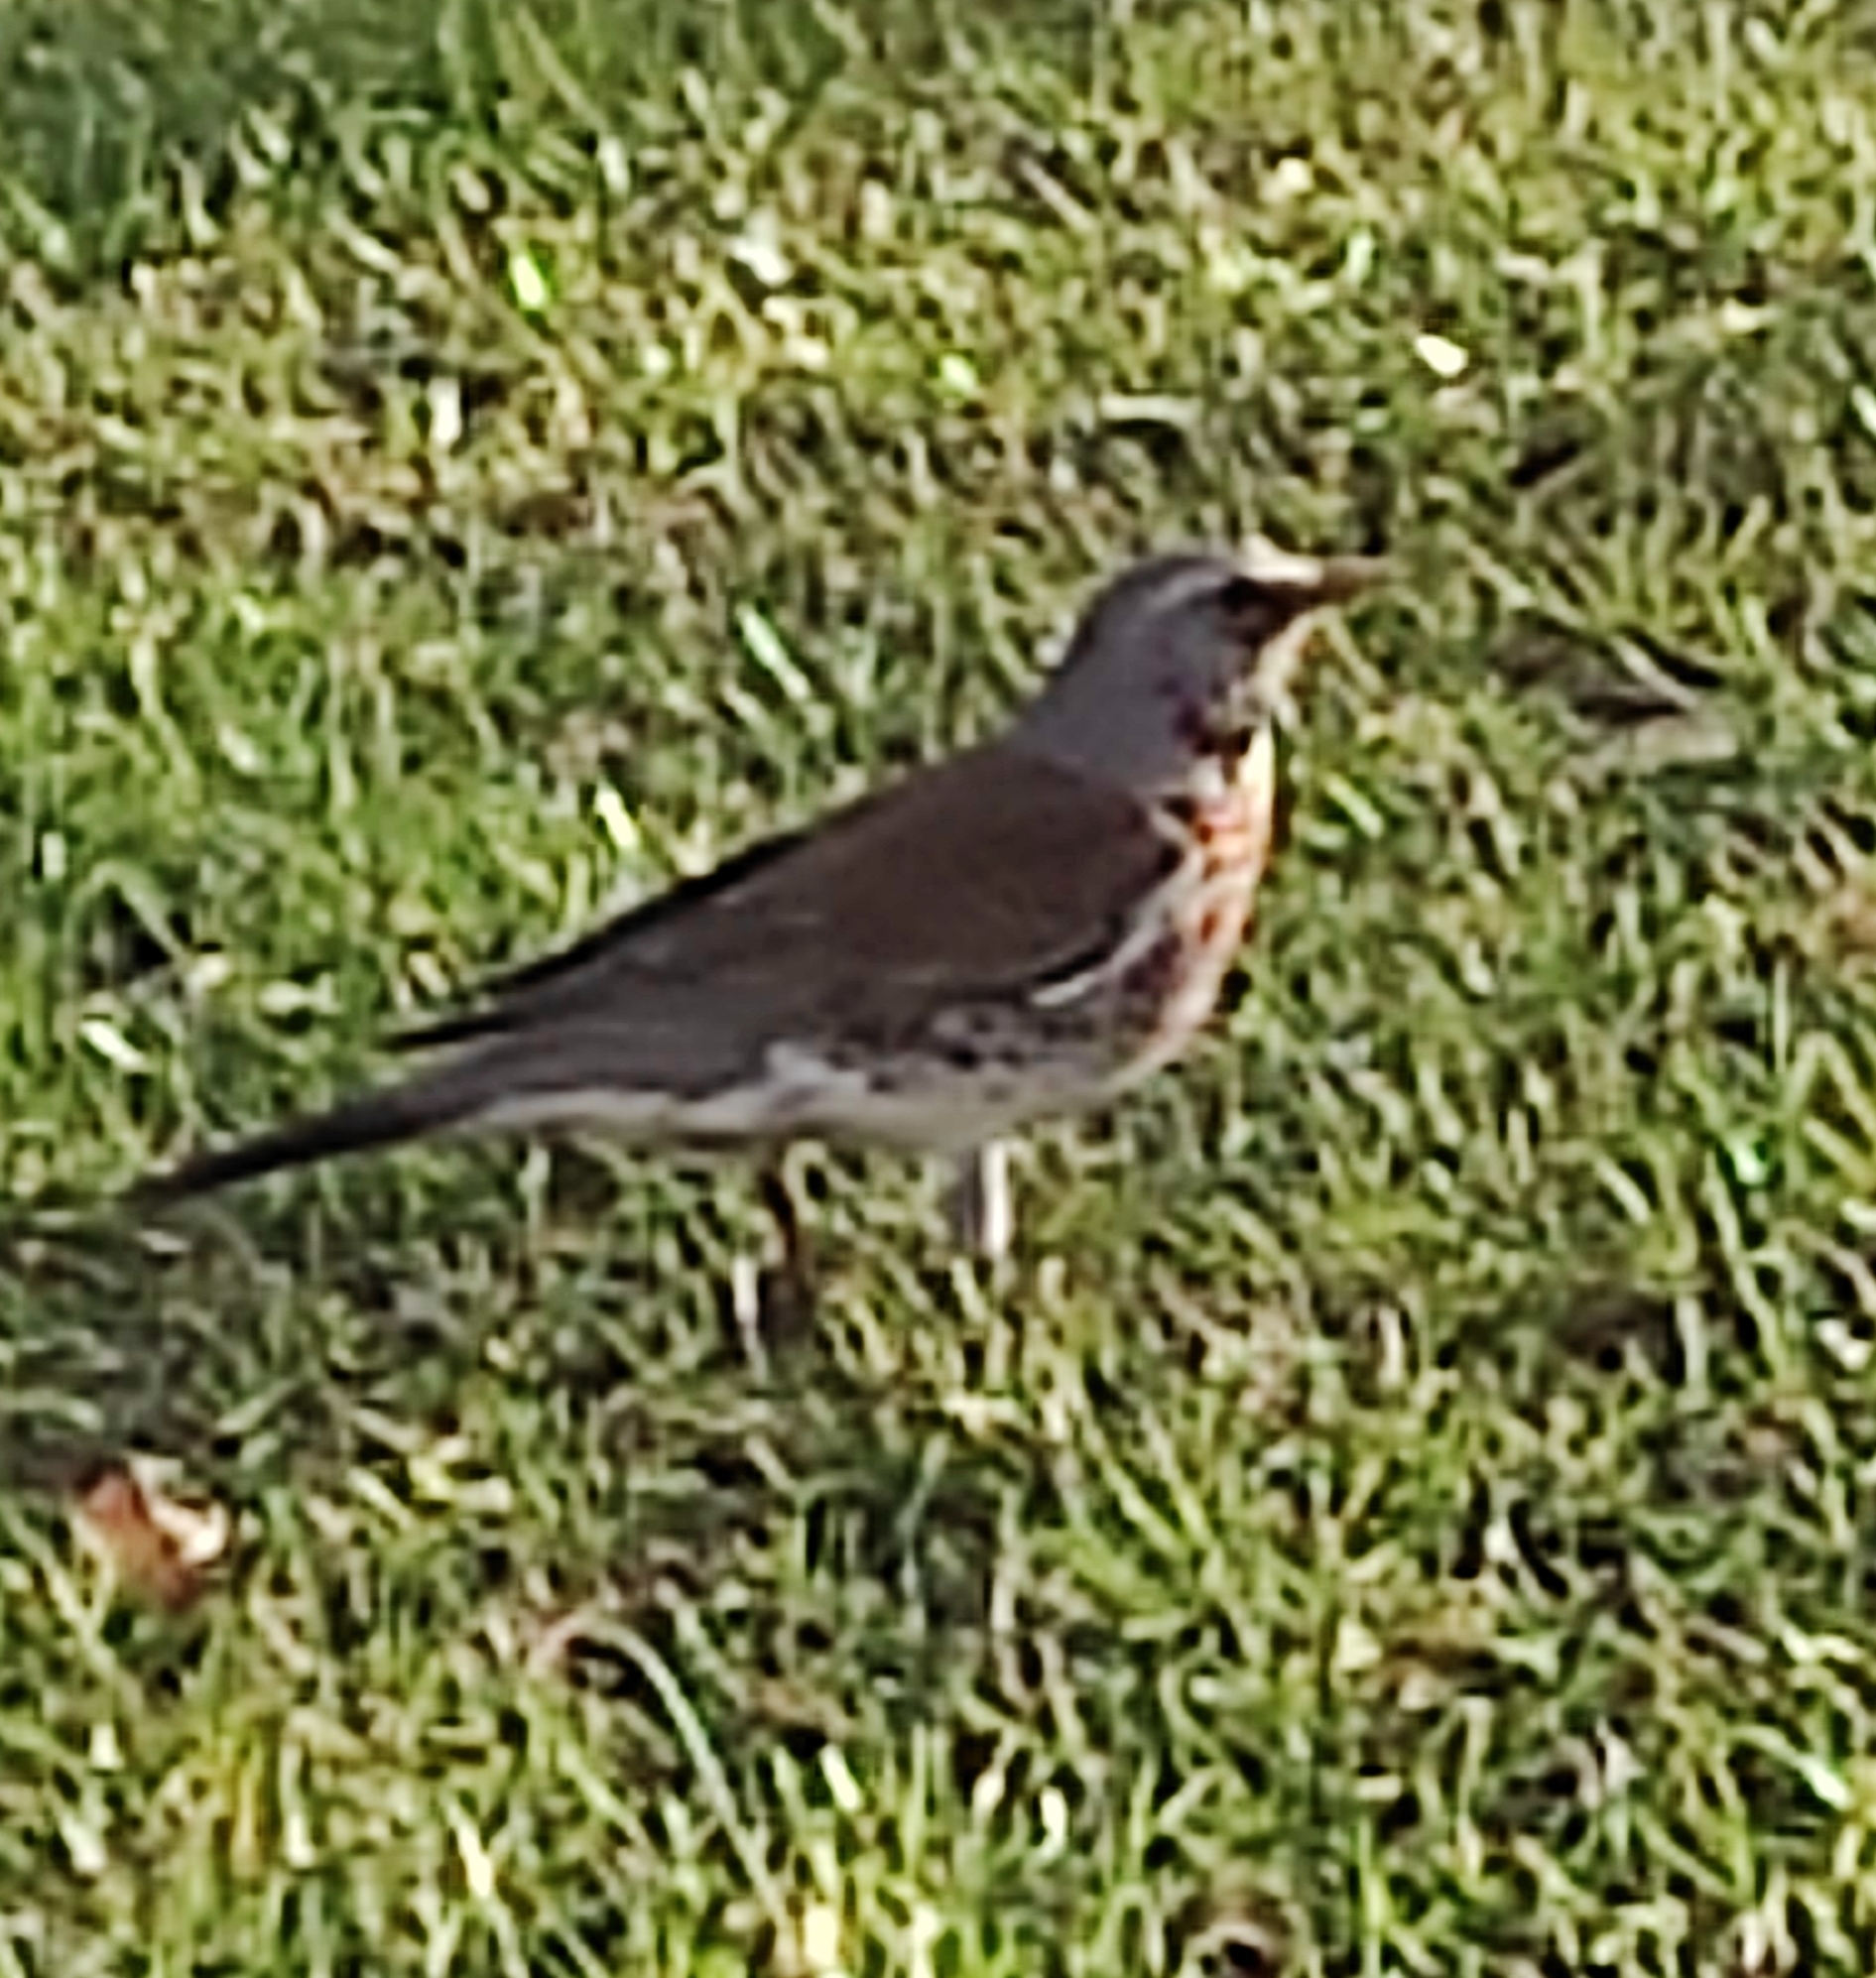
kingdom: Animalia
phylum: Chordata
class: Aves
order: Passeriformes
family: Turdidae
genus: Turdus
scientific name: Turdus pilaris
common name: Fieldfare
